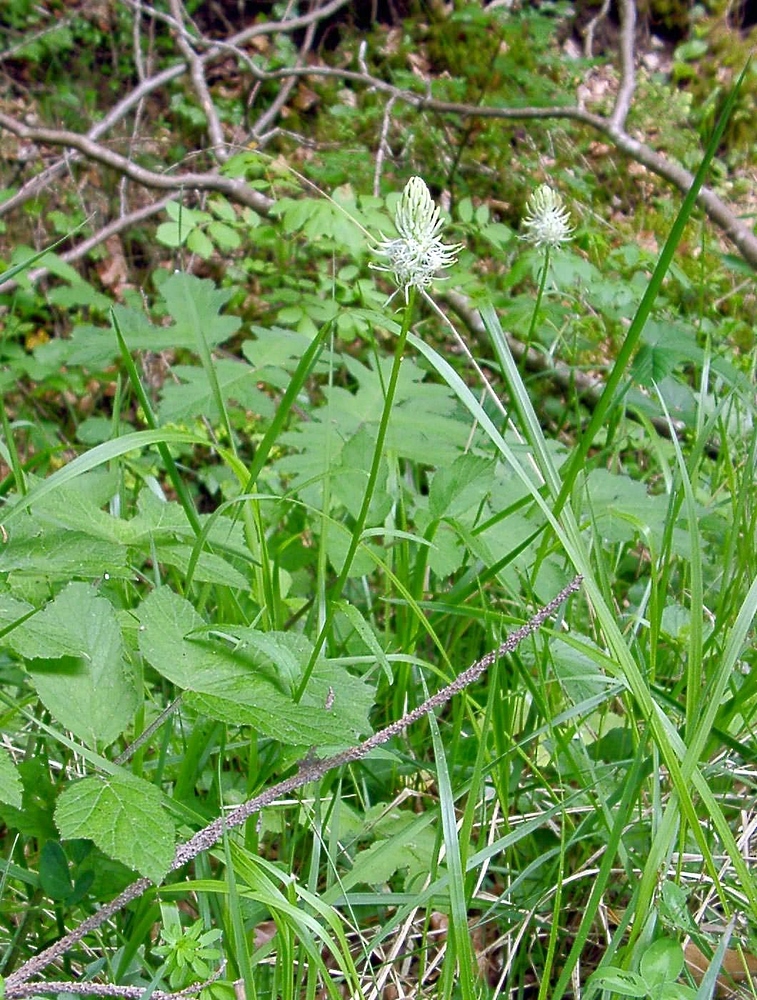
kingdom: Plantae
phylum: Tracheophyta
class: Magnoliopsida
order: Asterales
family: Campanulaceae
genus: Phyteuma
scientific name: Phyteuma spicatum
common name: Spiked rampion
